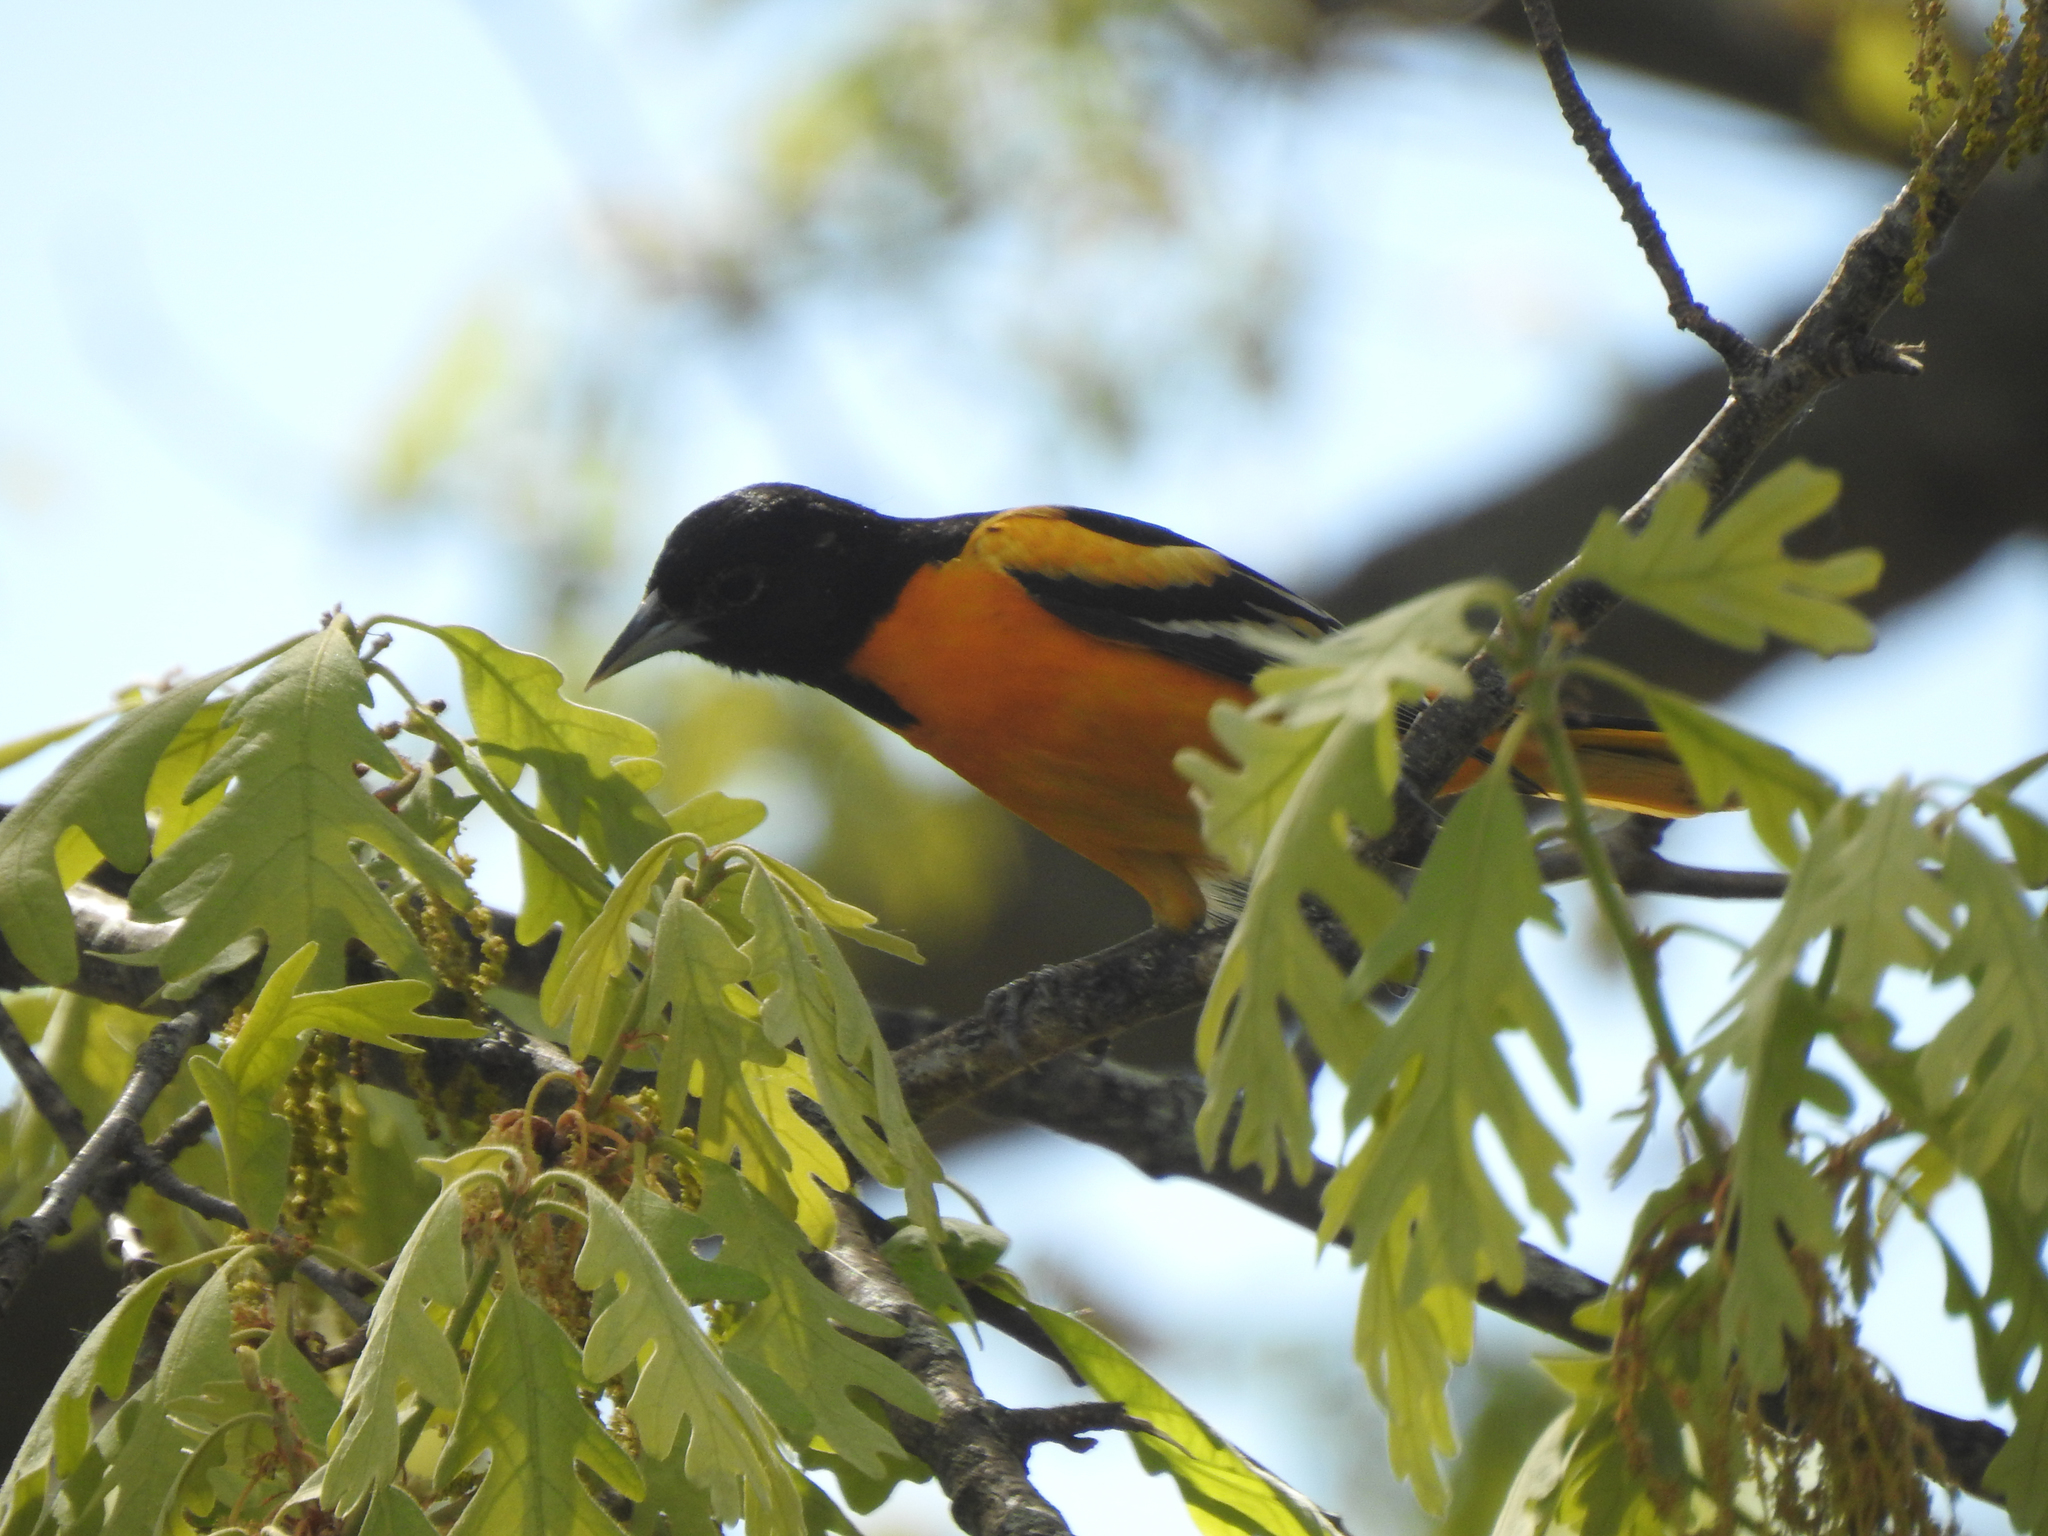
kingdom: Animalia
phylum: Chordata
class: Aves
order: Passeriformes
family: Icteridae
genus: Icterus
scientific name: Icterus galbula
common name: Baltimore oriole
